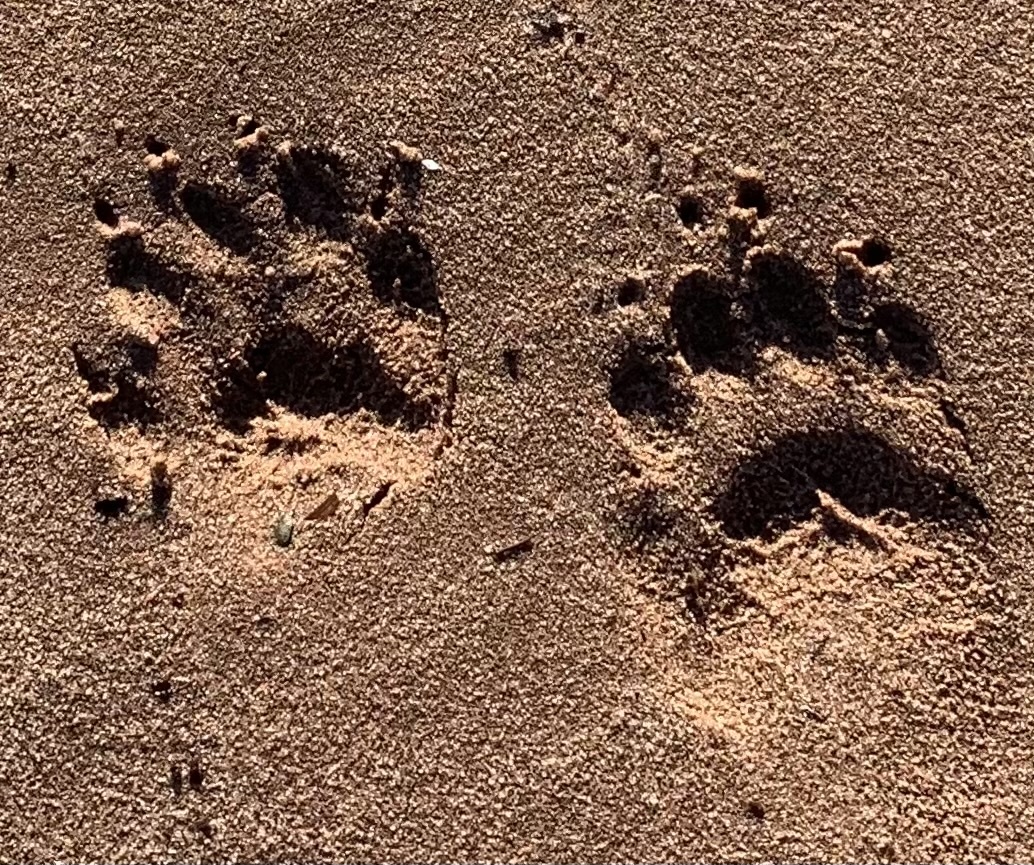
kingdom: Animalia
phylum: Chordata
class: Mammalia
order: Carnivora
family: Procyonidae
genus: Procyon
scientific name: Procyon lotor
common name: Raccoon
